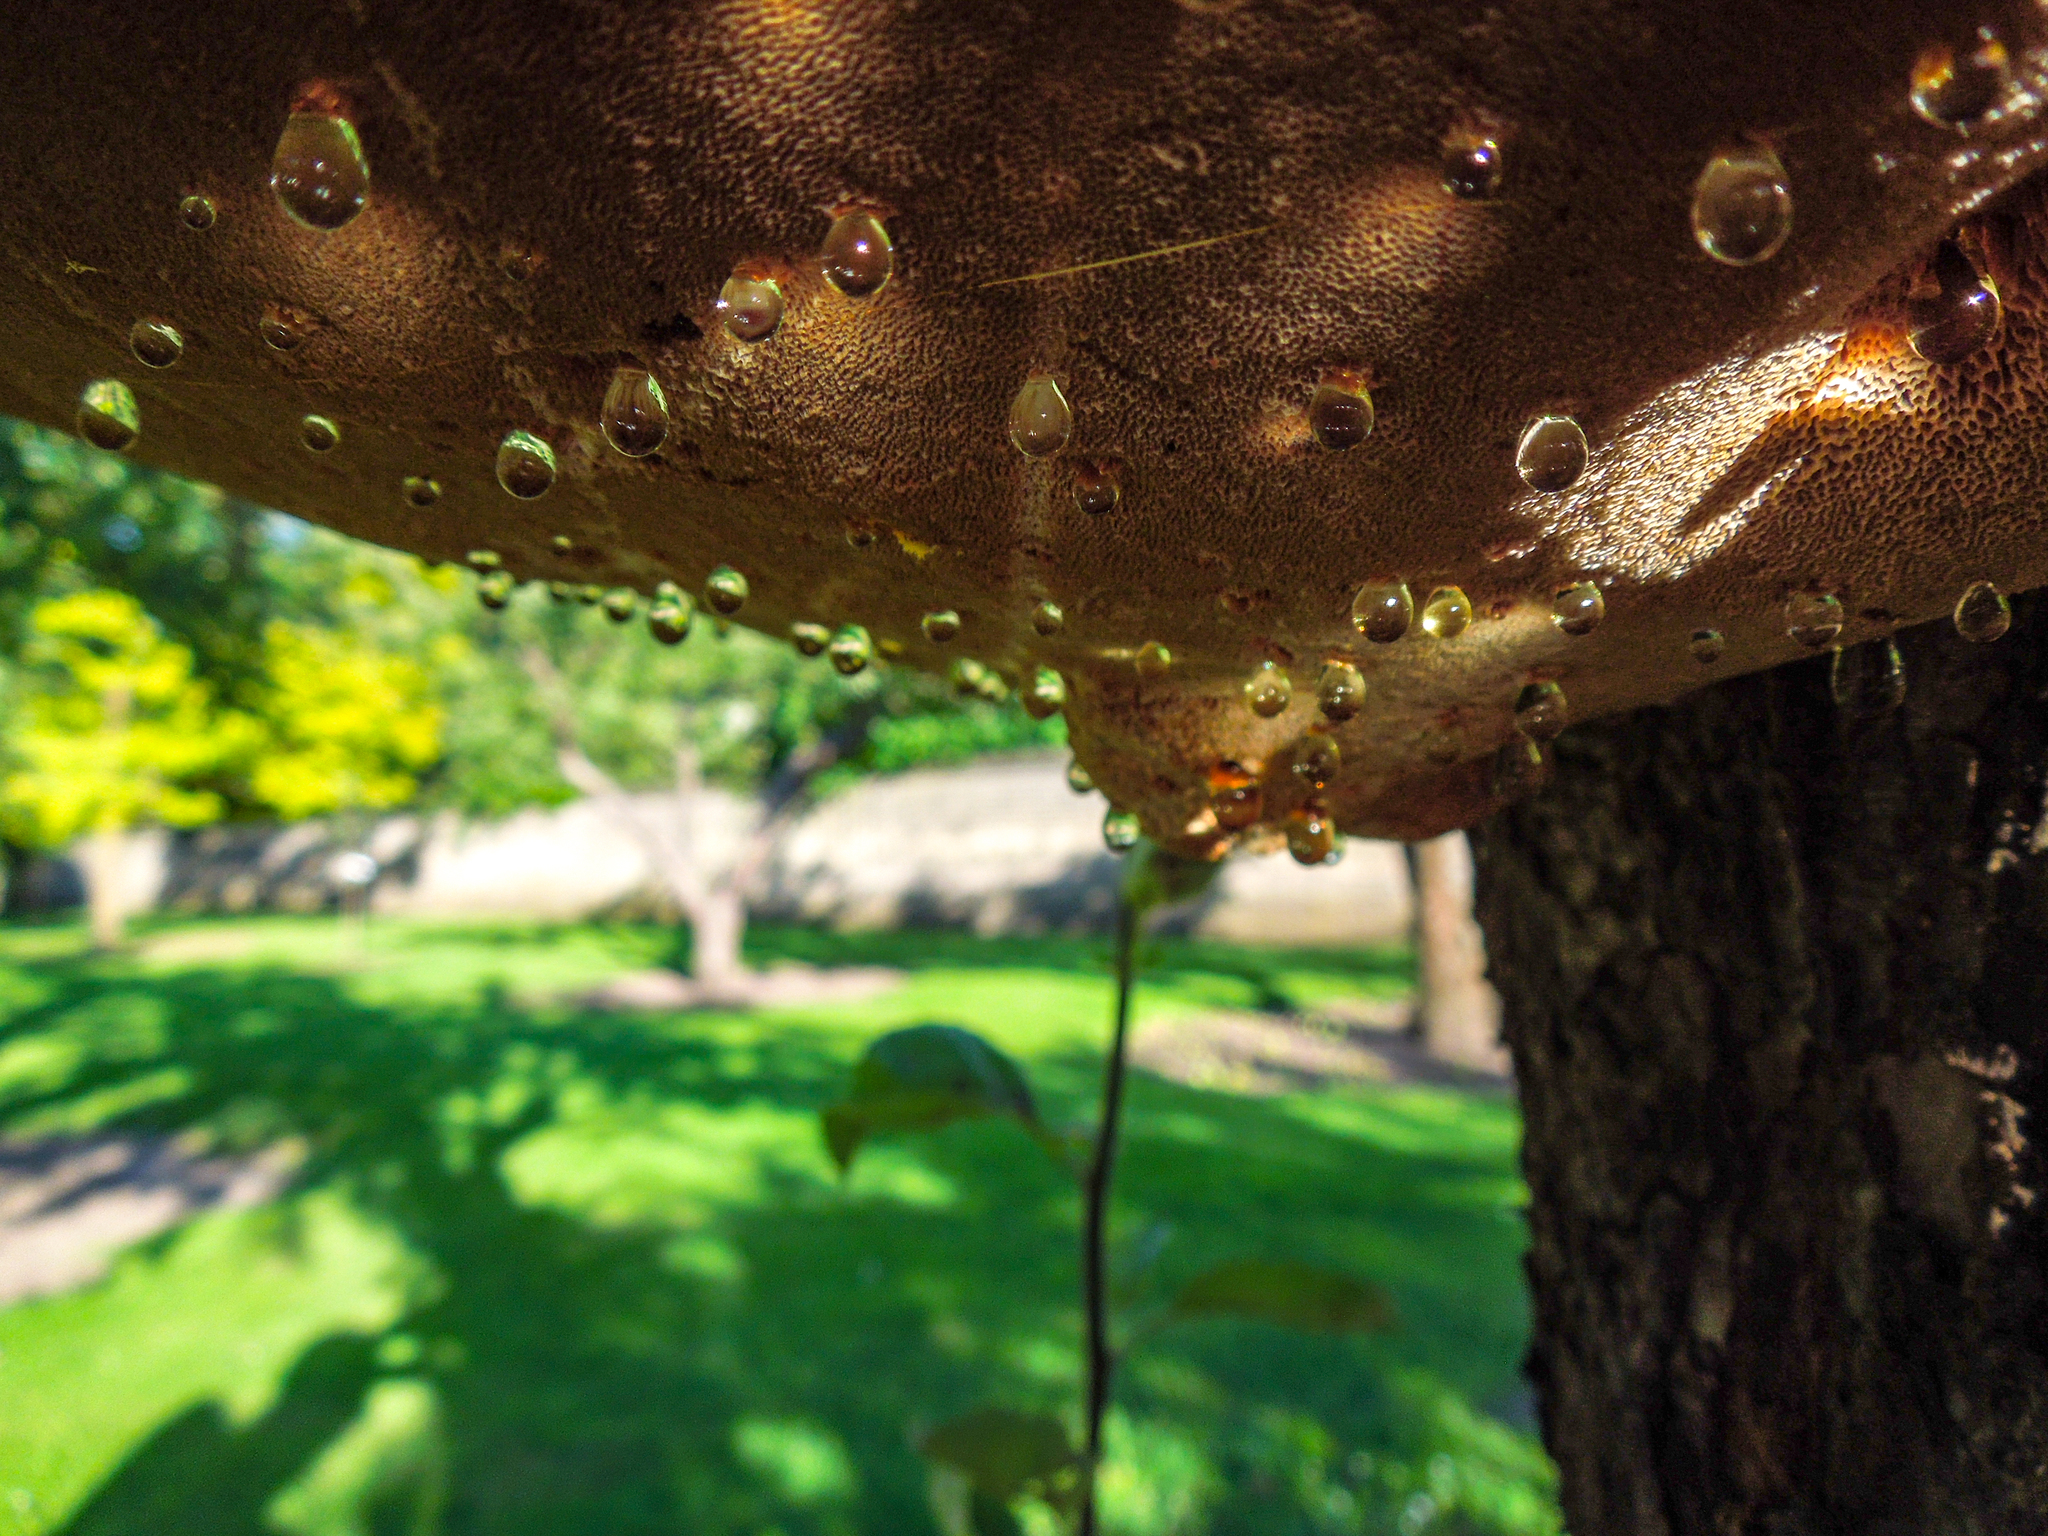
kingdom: Fungi
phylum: Basidiomycota
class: Agaricomycetes
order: Hymenochaetales
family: Hymenochaetaceae
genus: Inonotus
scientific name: Inonotus hispidus
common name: Shaggy bracket
